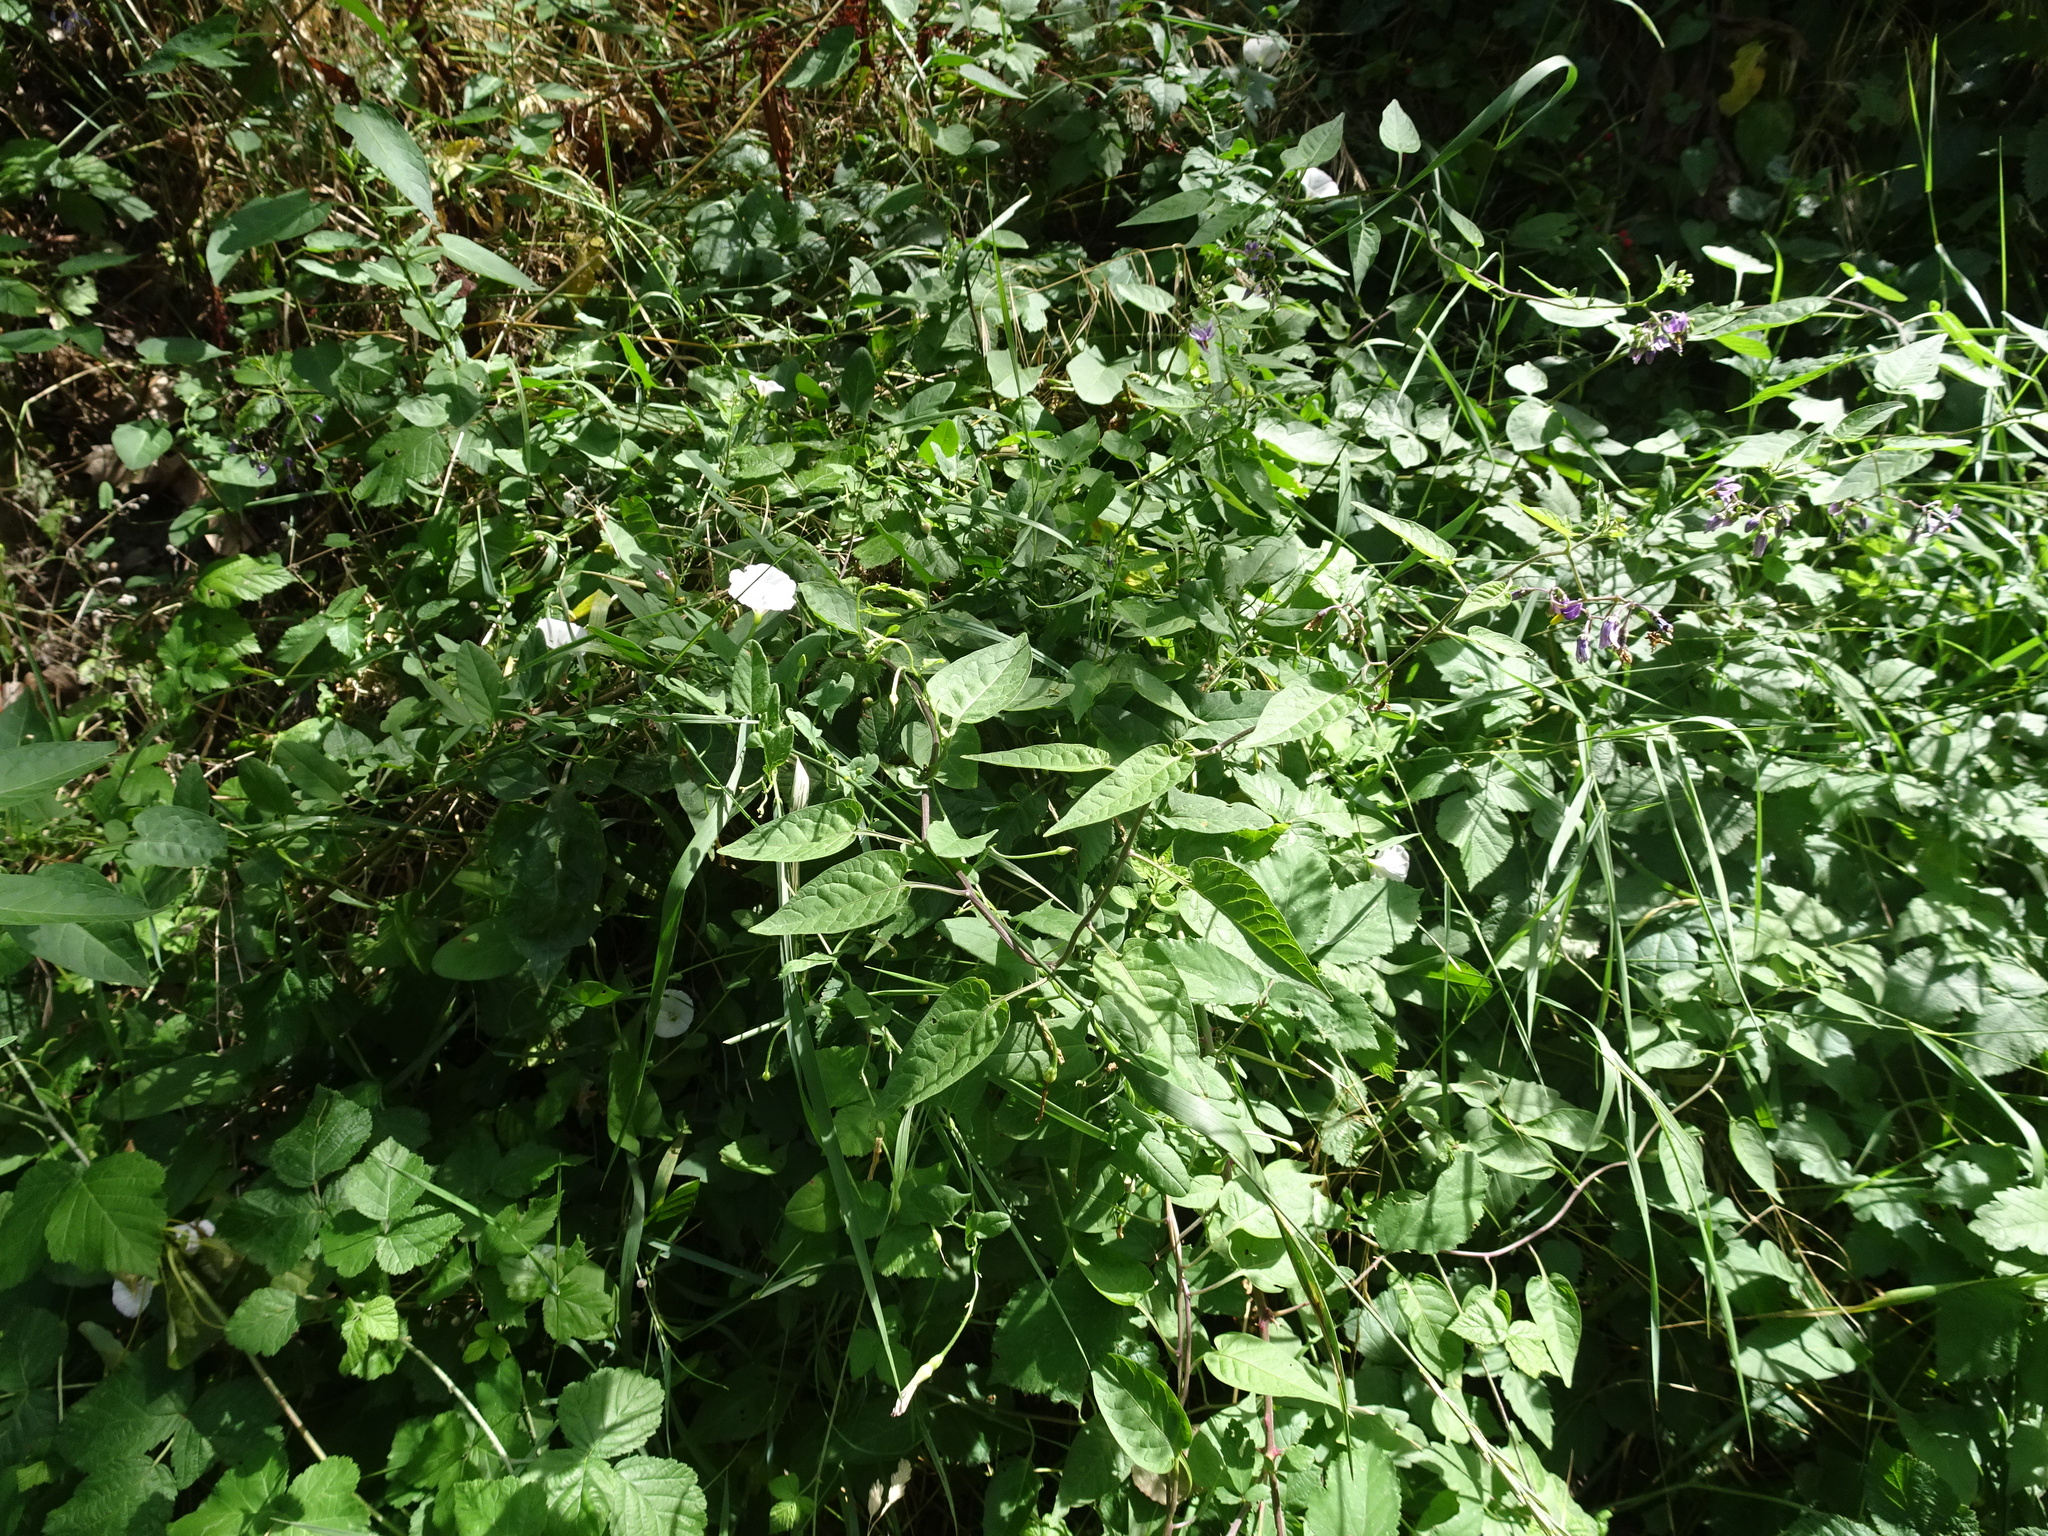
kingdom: Plantae
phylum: Tracheophyta
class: Magnoliopsida
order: Solanales
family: Solanaceae
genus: Solanum
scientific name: Solanum dulcamara
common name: Climbing nightshade
